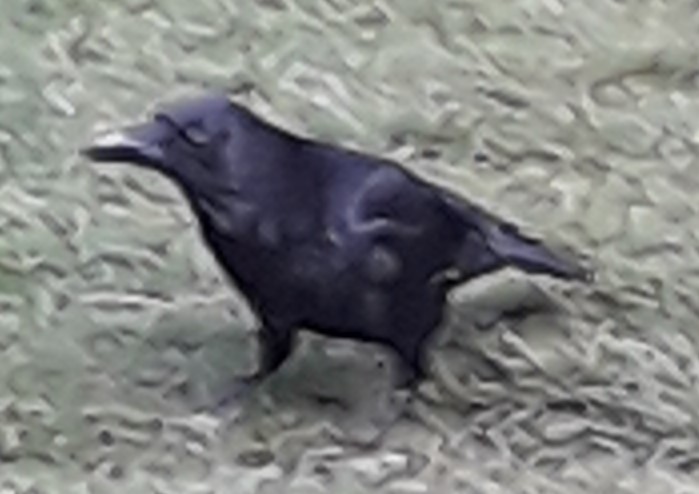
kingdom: Animalia
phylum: Chordata
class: Aves
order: Passeriformes
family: Corvidae
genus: Corvus
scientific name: Corvus corone
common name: Carrion crow
